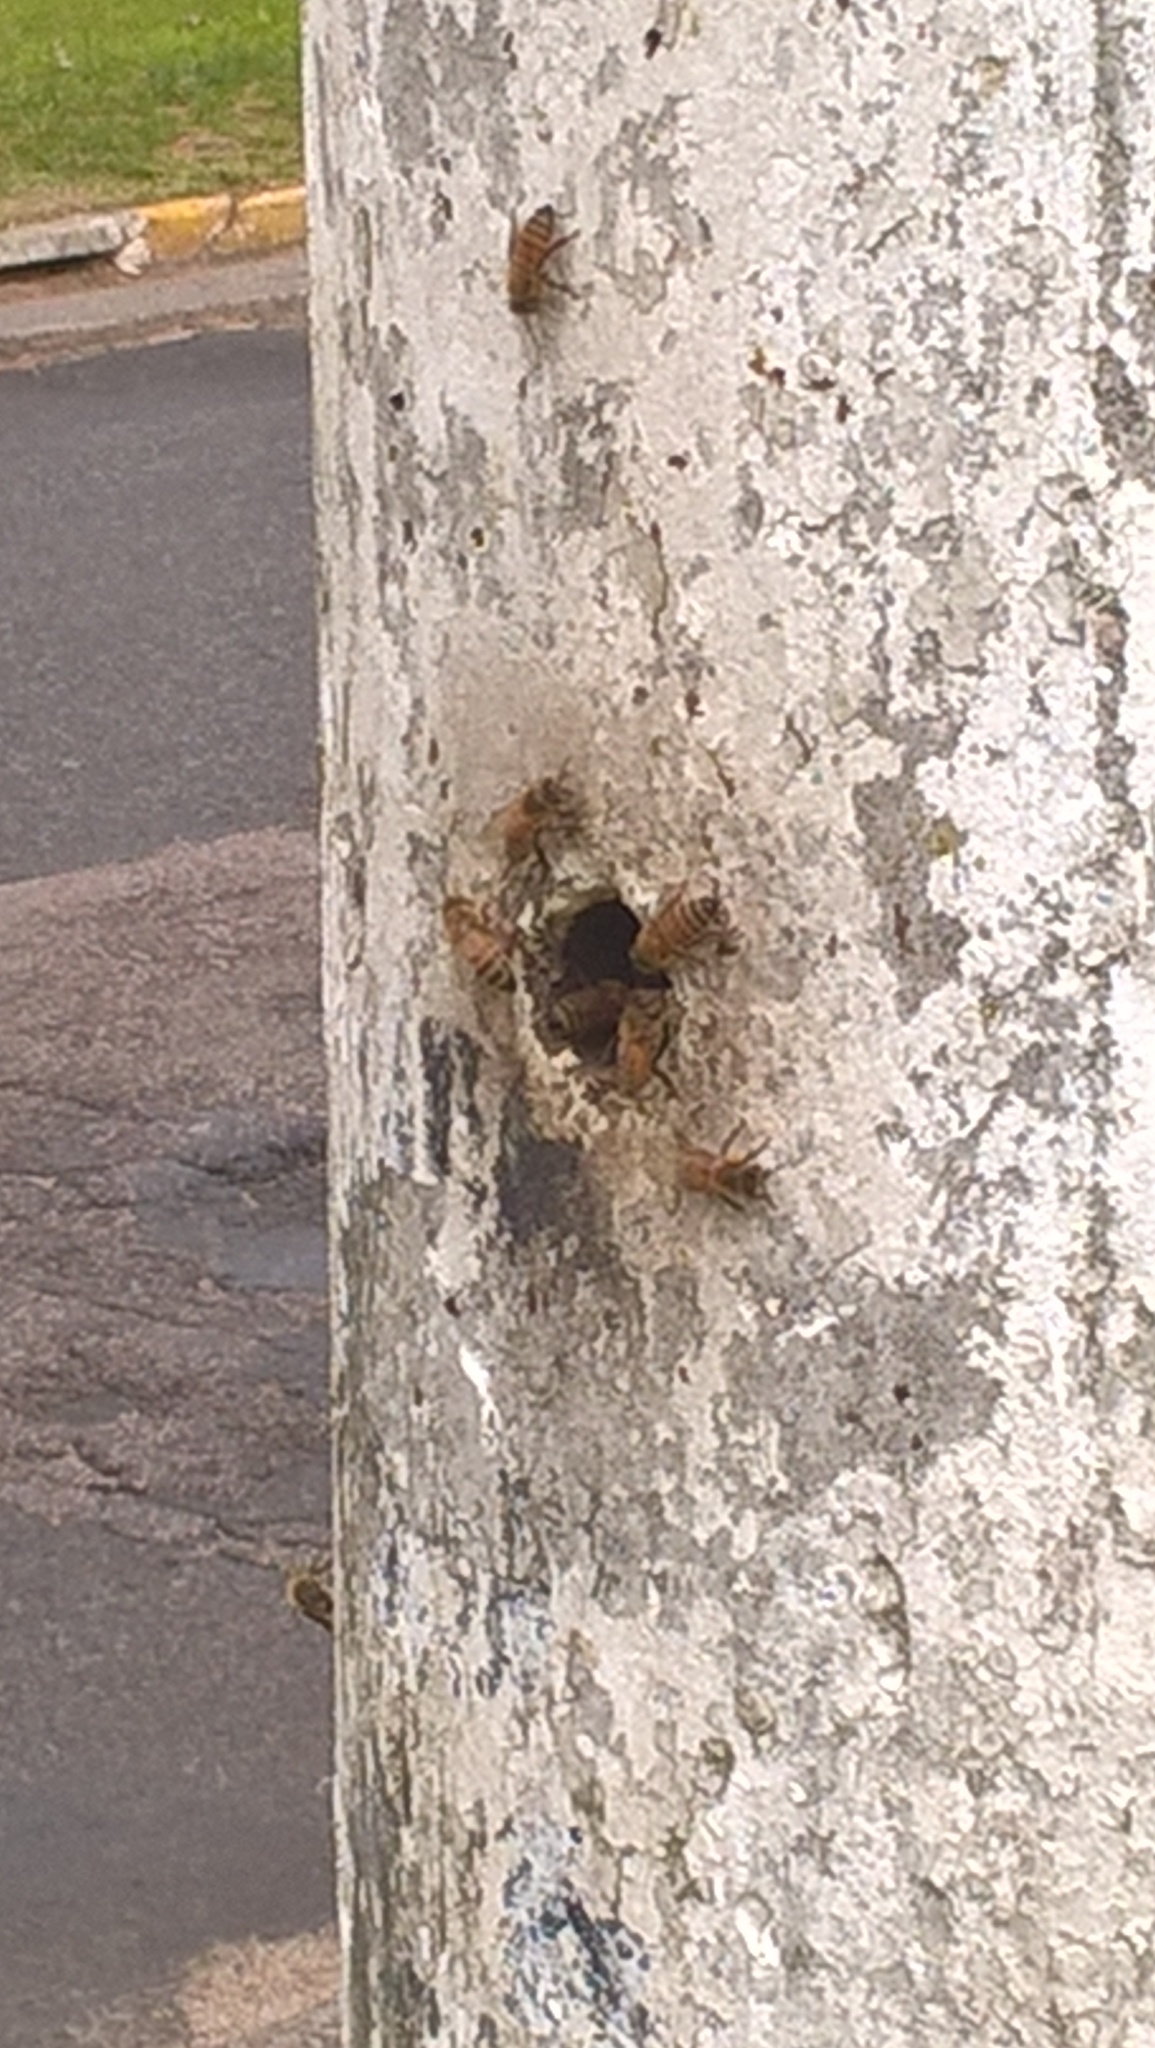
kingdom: Animalia
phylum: Arthropoda
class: Insecta
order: Hymenoptera
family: Apidae
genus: Apis
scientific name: Apis mellifera
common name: Honey bee
